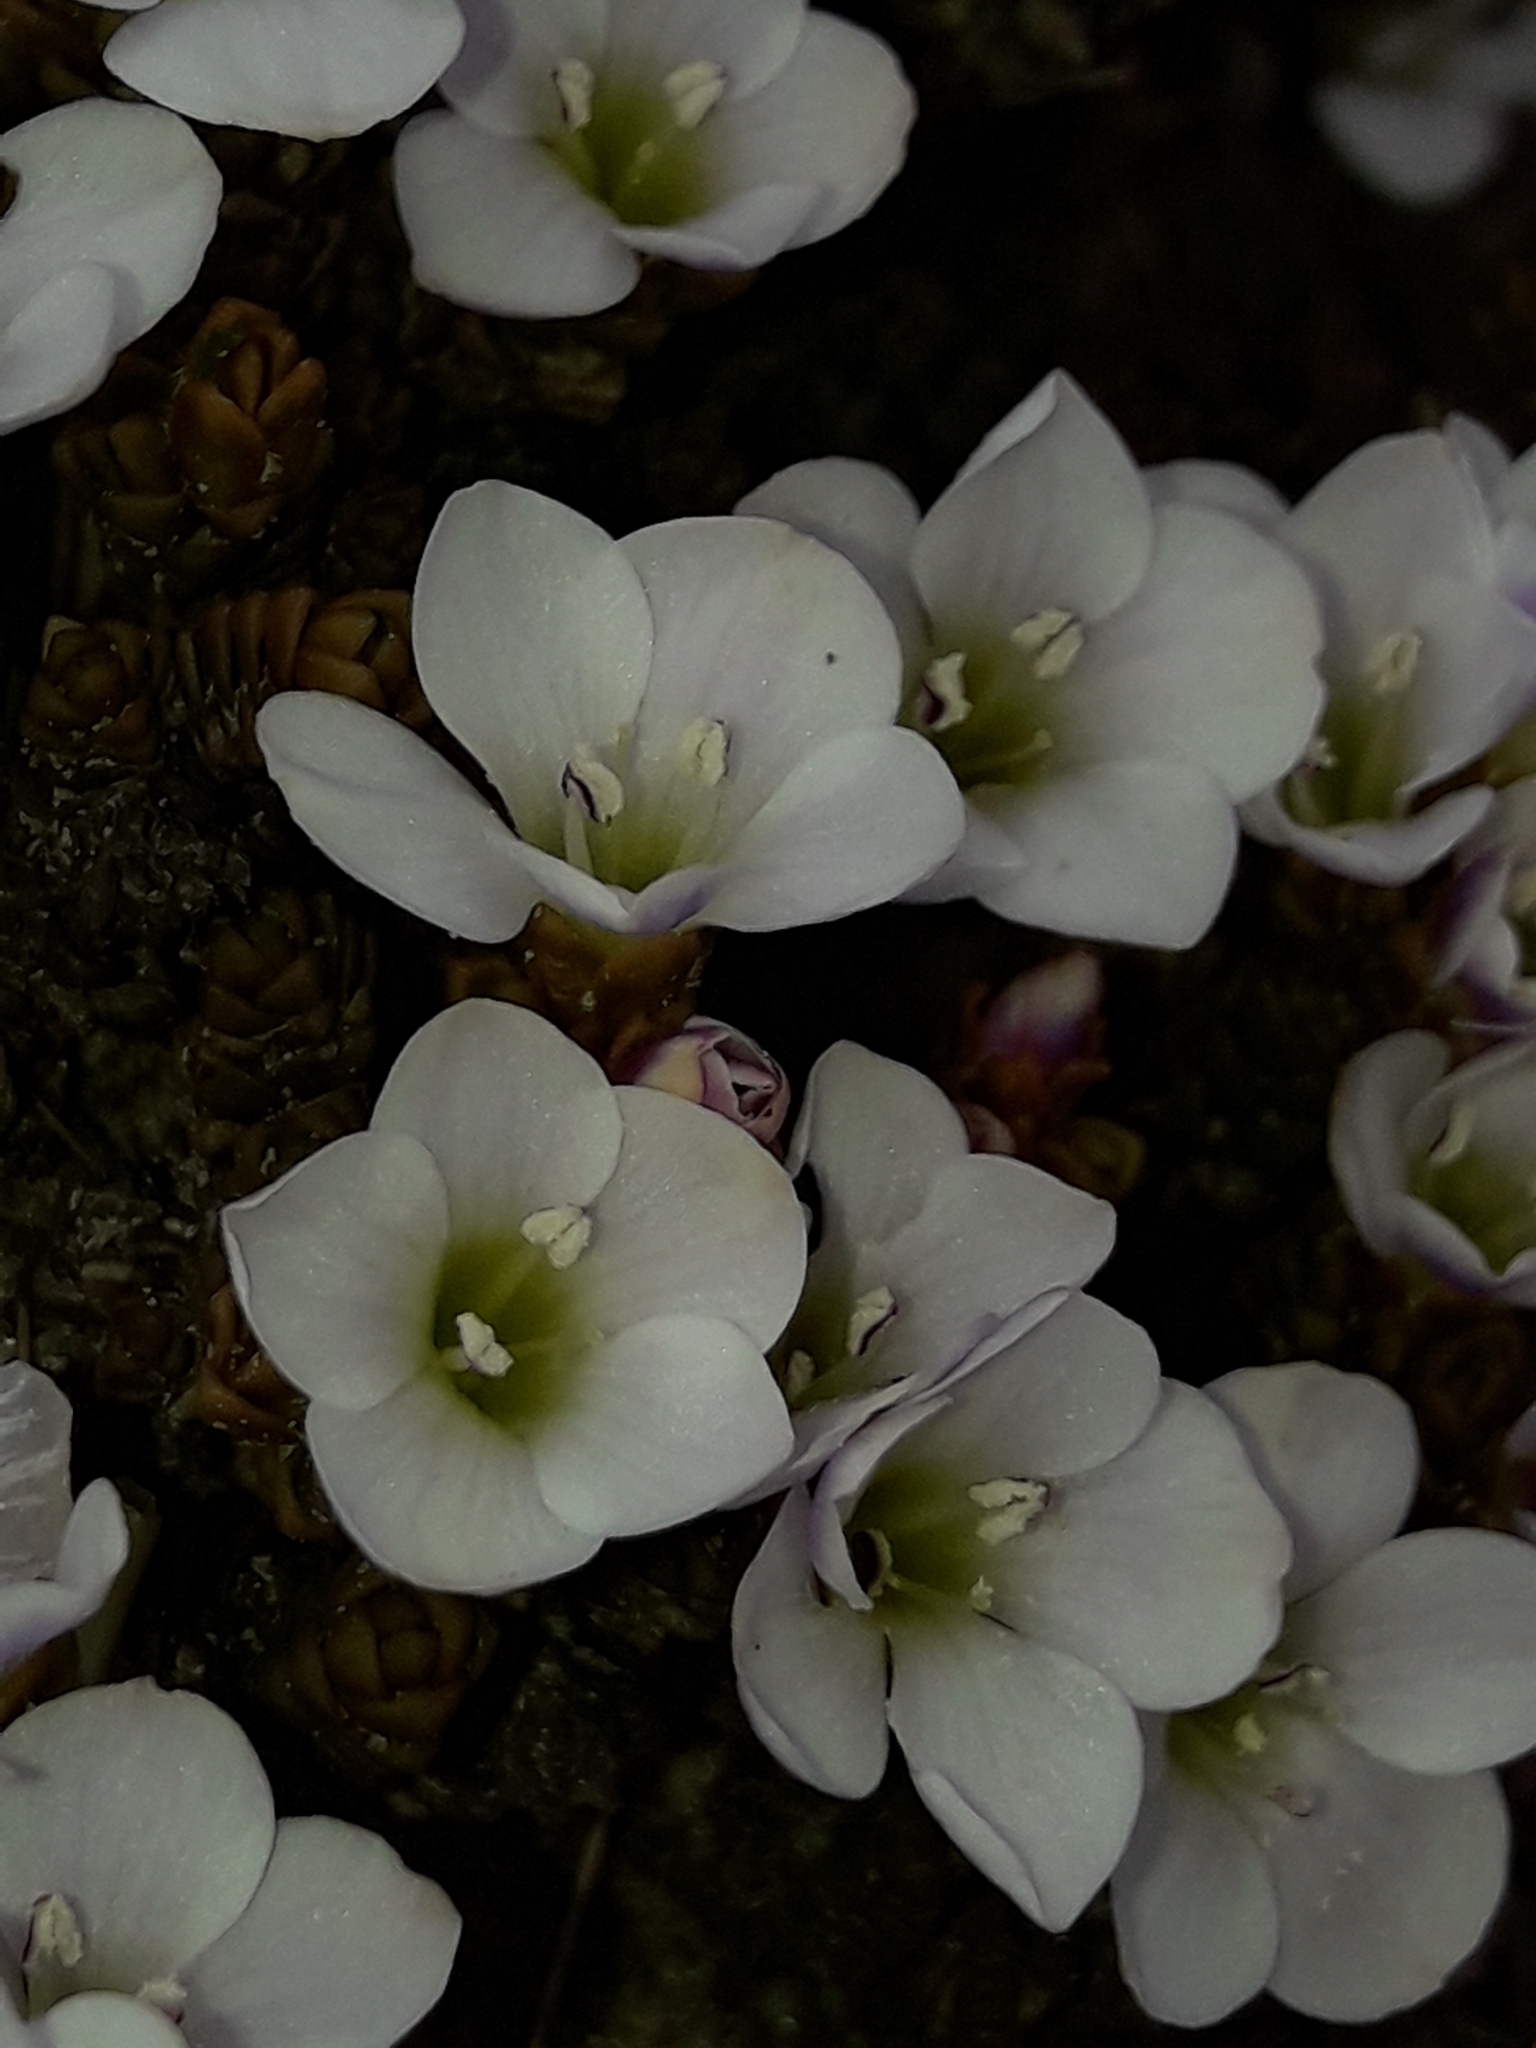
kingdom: Plantae
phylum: Tracheophyta
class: Magnoliopsida
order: Lamiales
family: Plantaginaceae
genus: Veronica
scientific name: Veronica densifolia
